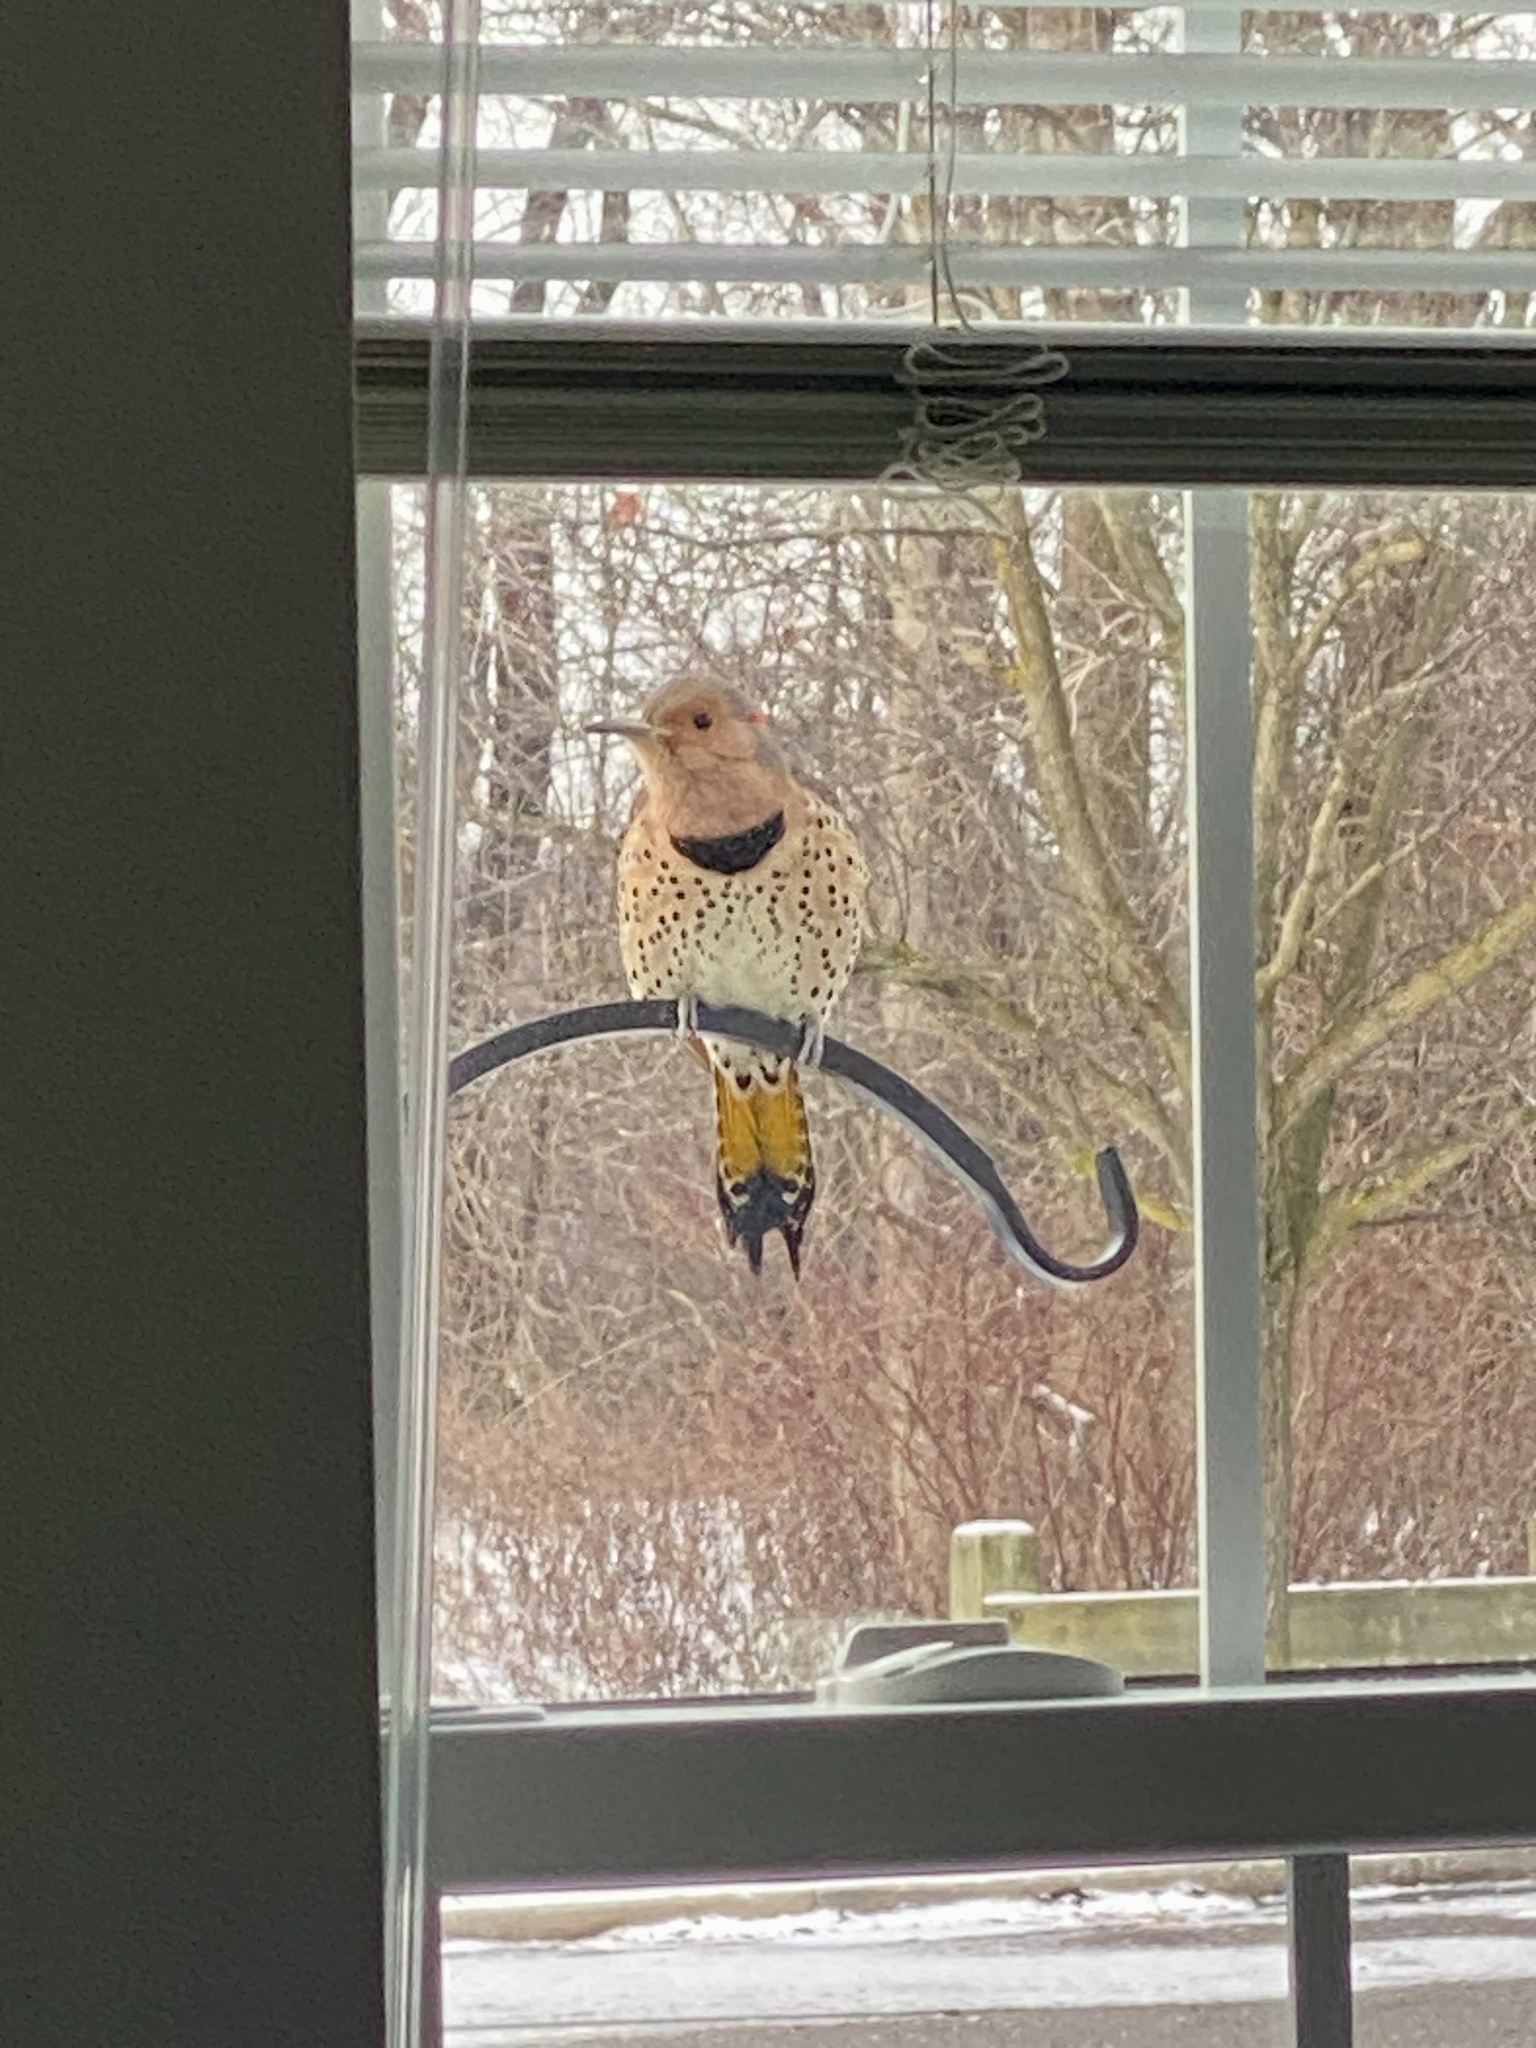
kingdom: Animalia
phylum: Chordata
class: Aves
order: Piciformes
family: Picidae
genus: Colaptes
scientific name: Colaptes auratus
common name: Northern flicker
